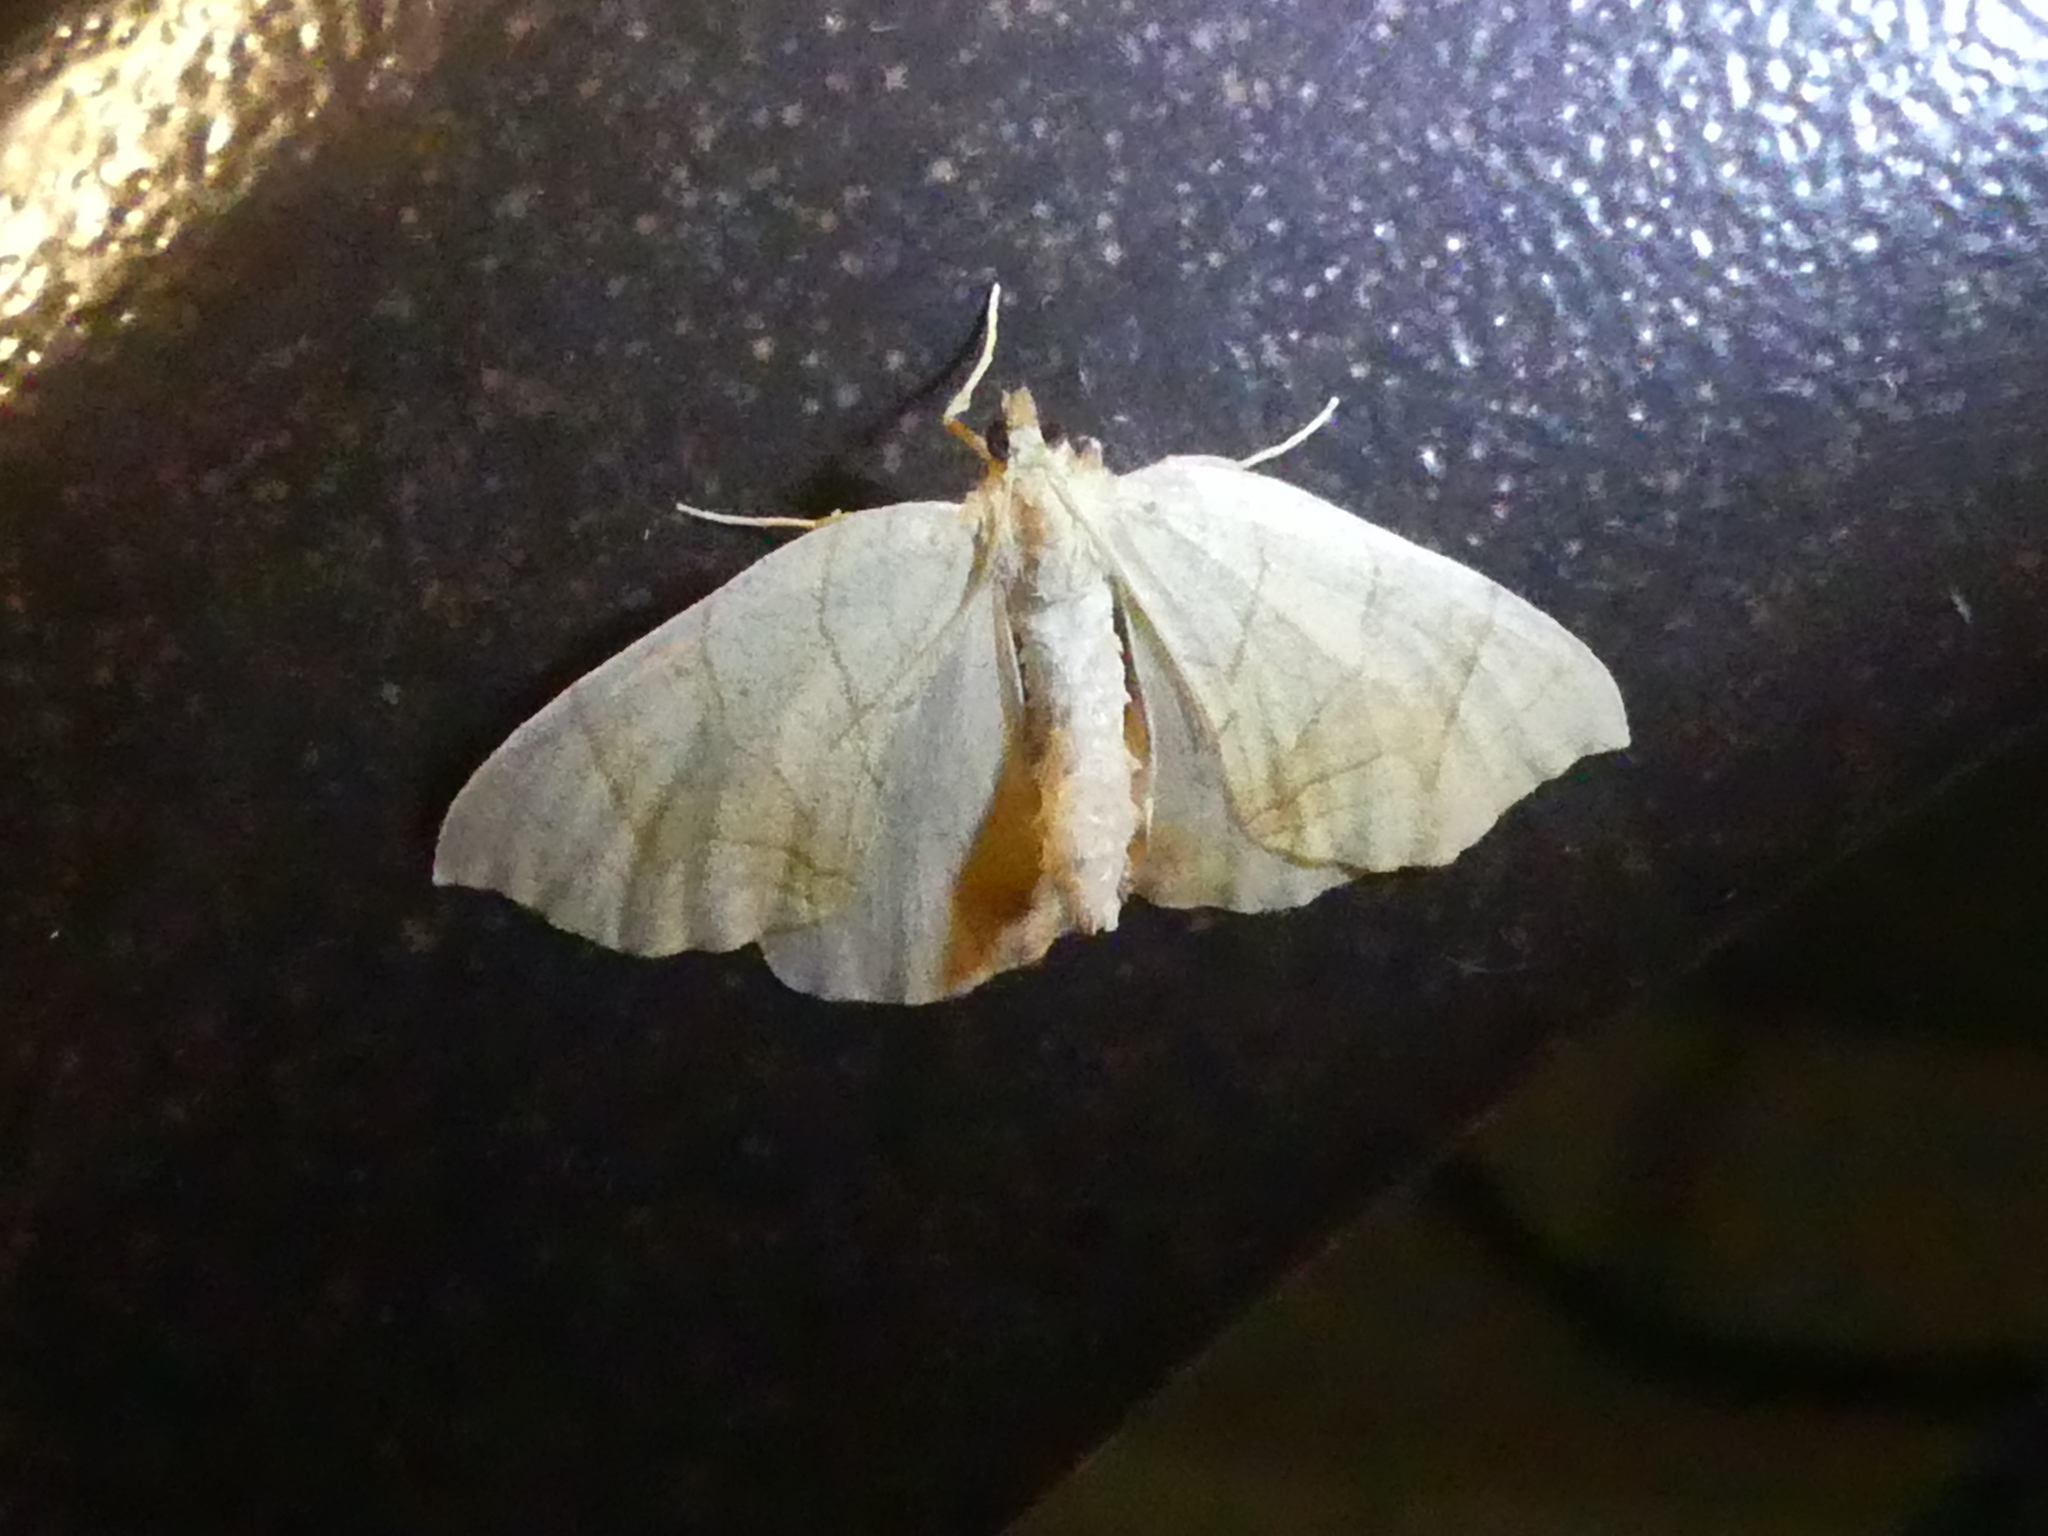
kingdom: Animalia
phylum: Arthropoda
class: Insecta
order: Lepidoptera
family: Geometridae
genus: Eulithis
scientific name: Eulithis
